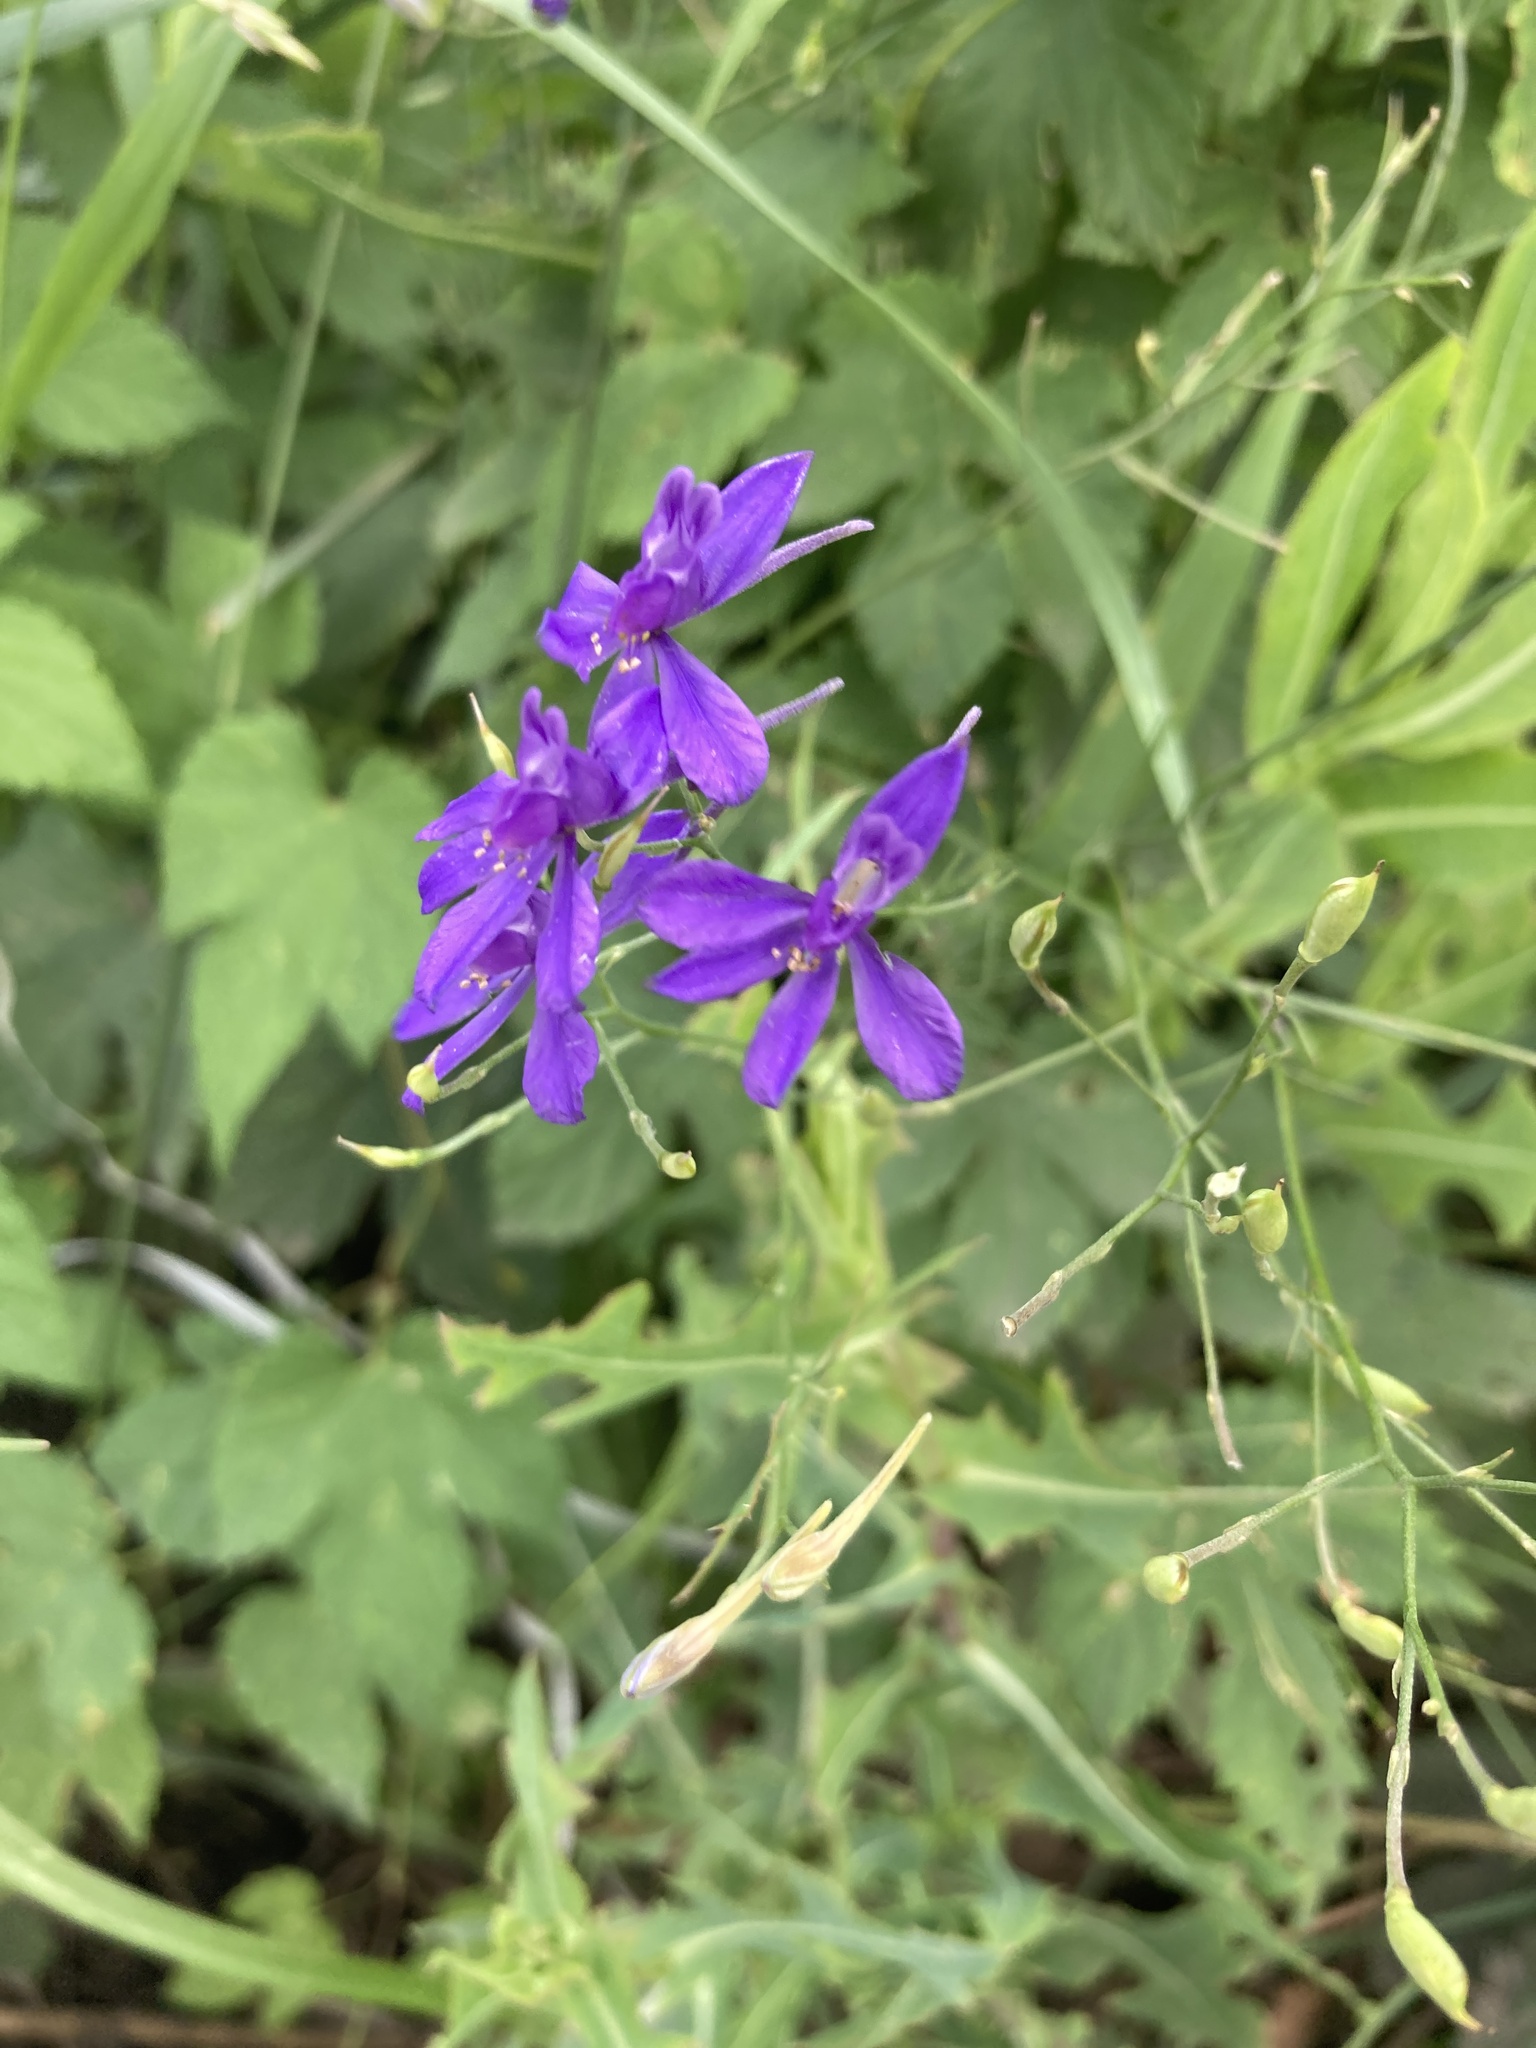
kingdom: Plantae
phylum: Tracheophyta
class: Magnoliopsida
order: Ranunculales
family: Ranunculaceae
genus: Delphinium
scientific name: Delphinium consolida
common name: Branching larkspur
